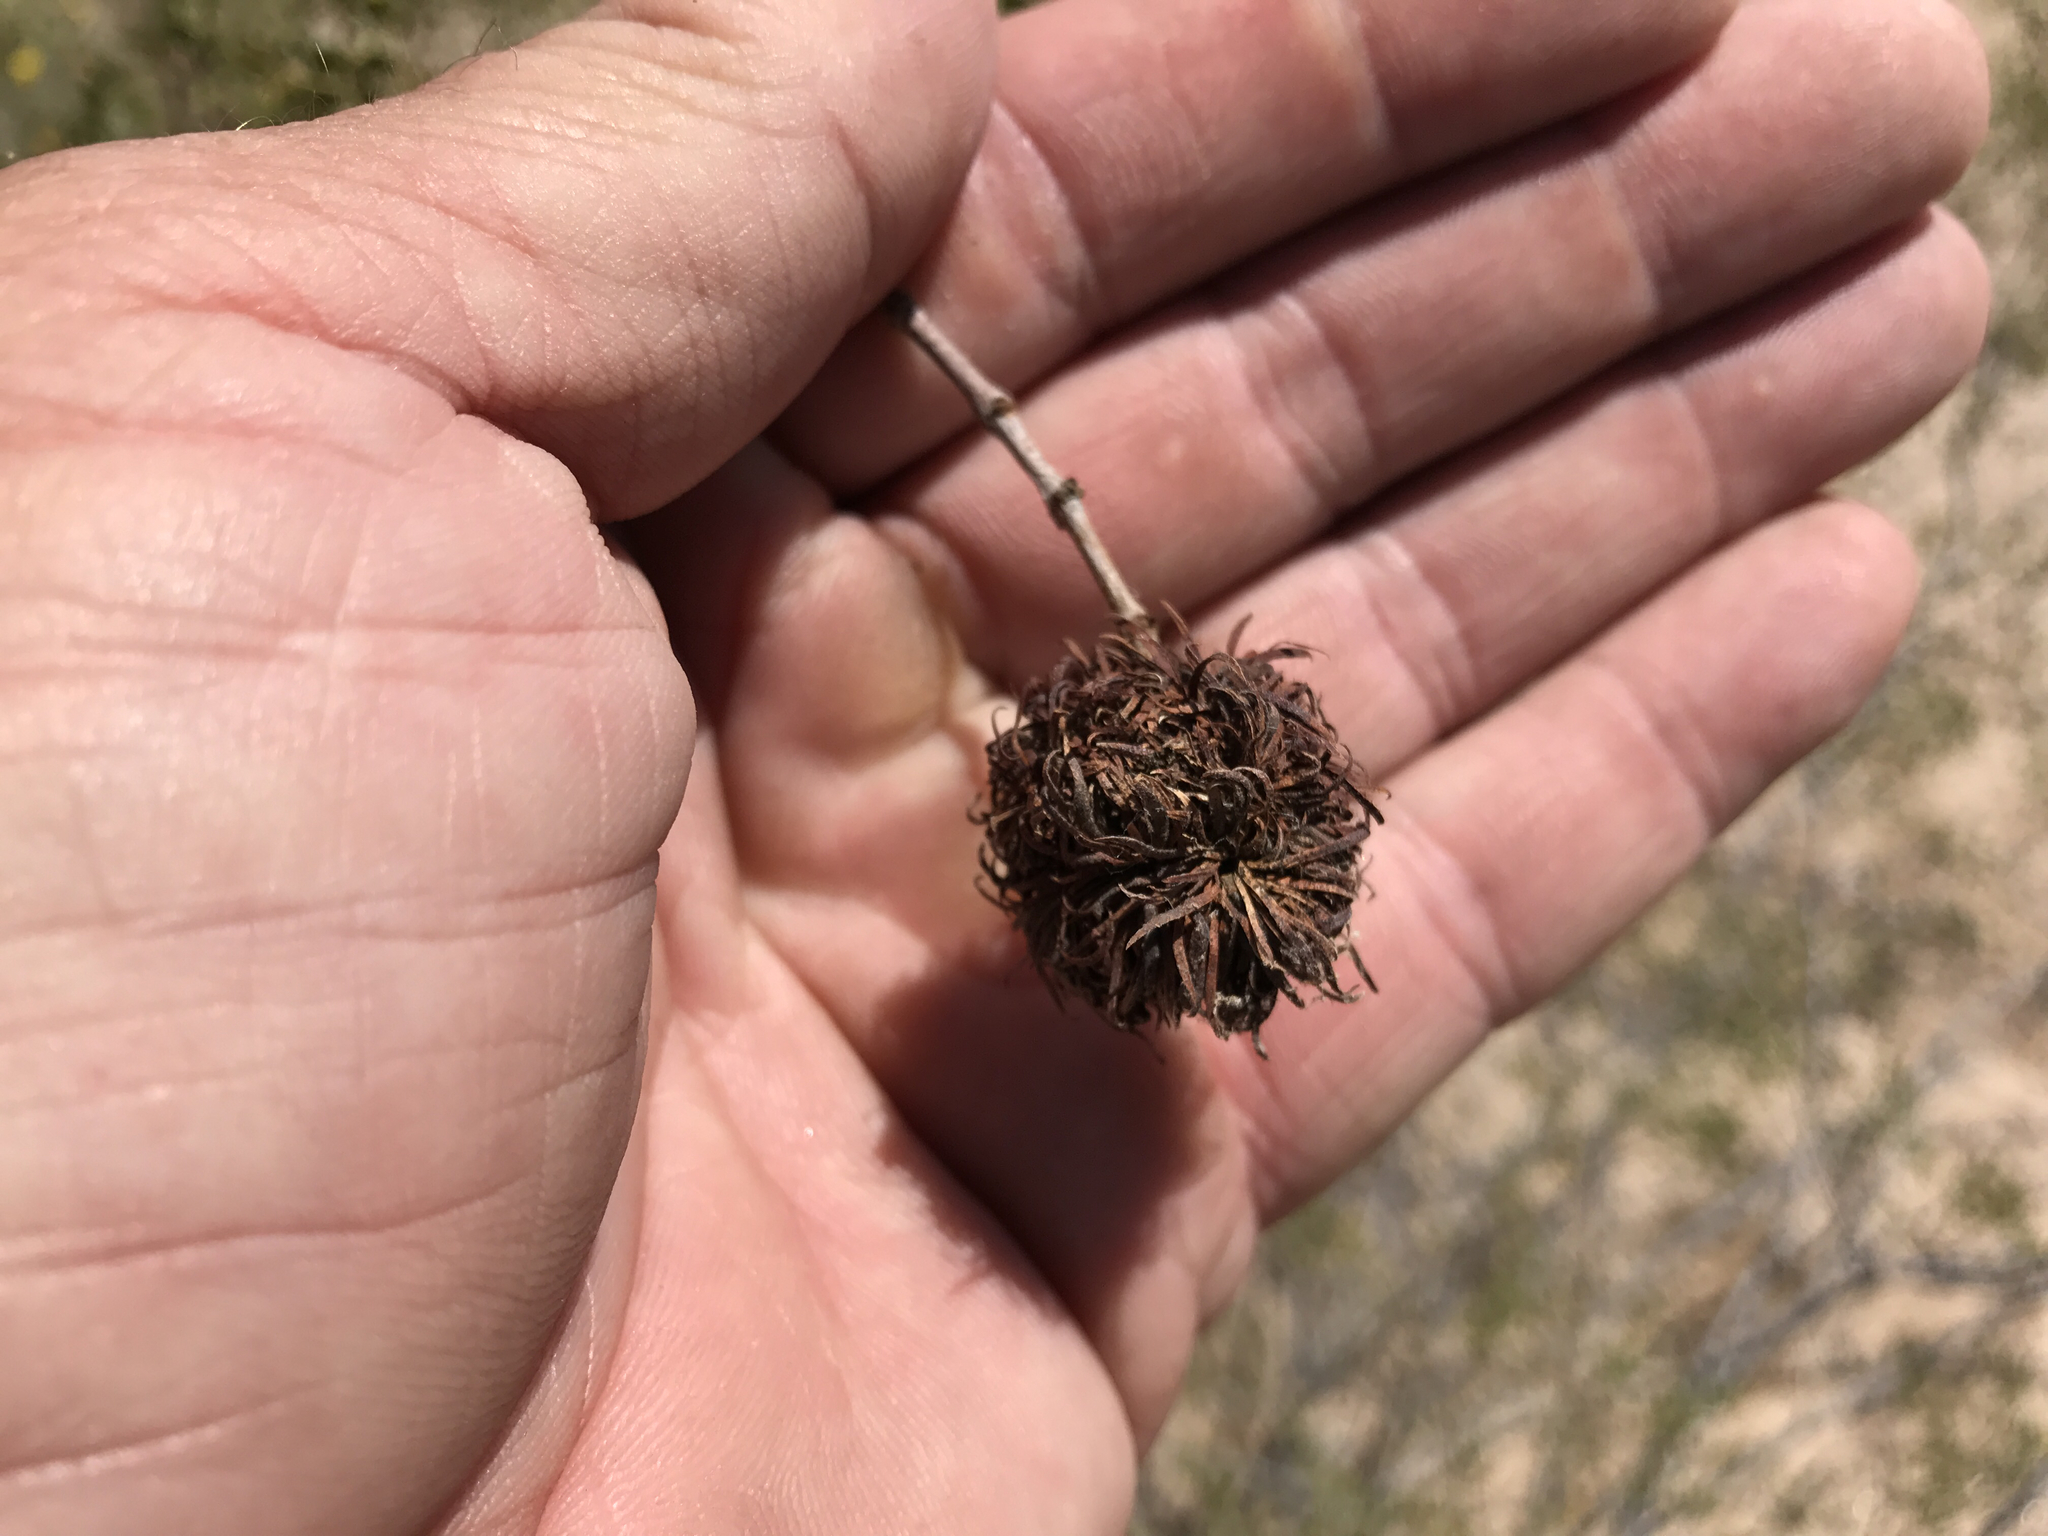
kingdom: Animalia
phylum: Arthropoda
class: Insecta
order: Diptera
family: Cecidomyiidae
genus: Asphondylia
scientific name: Asphondylia auripila
